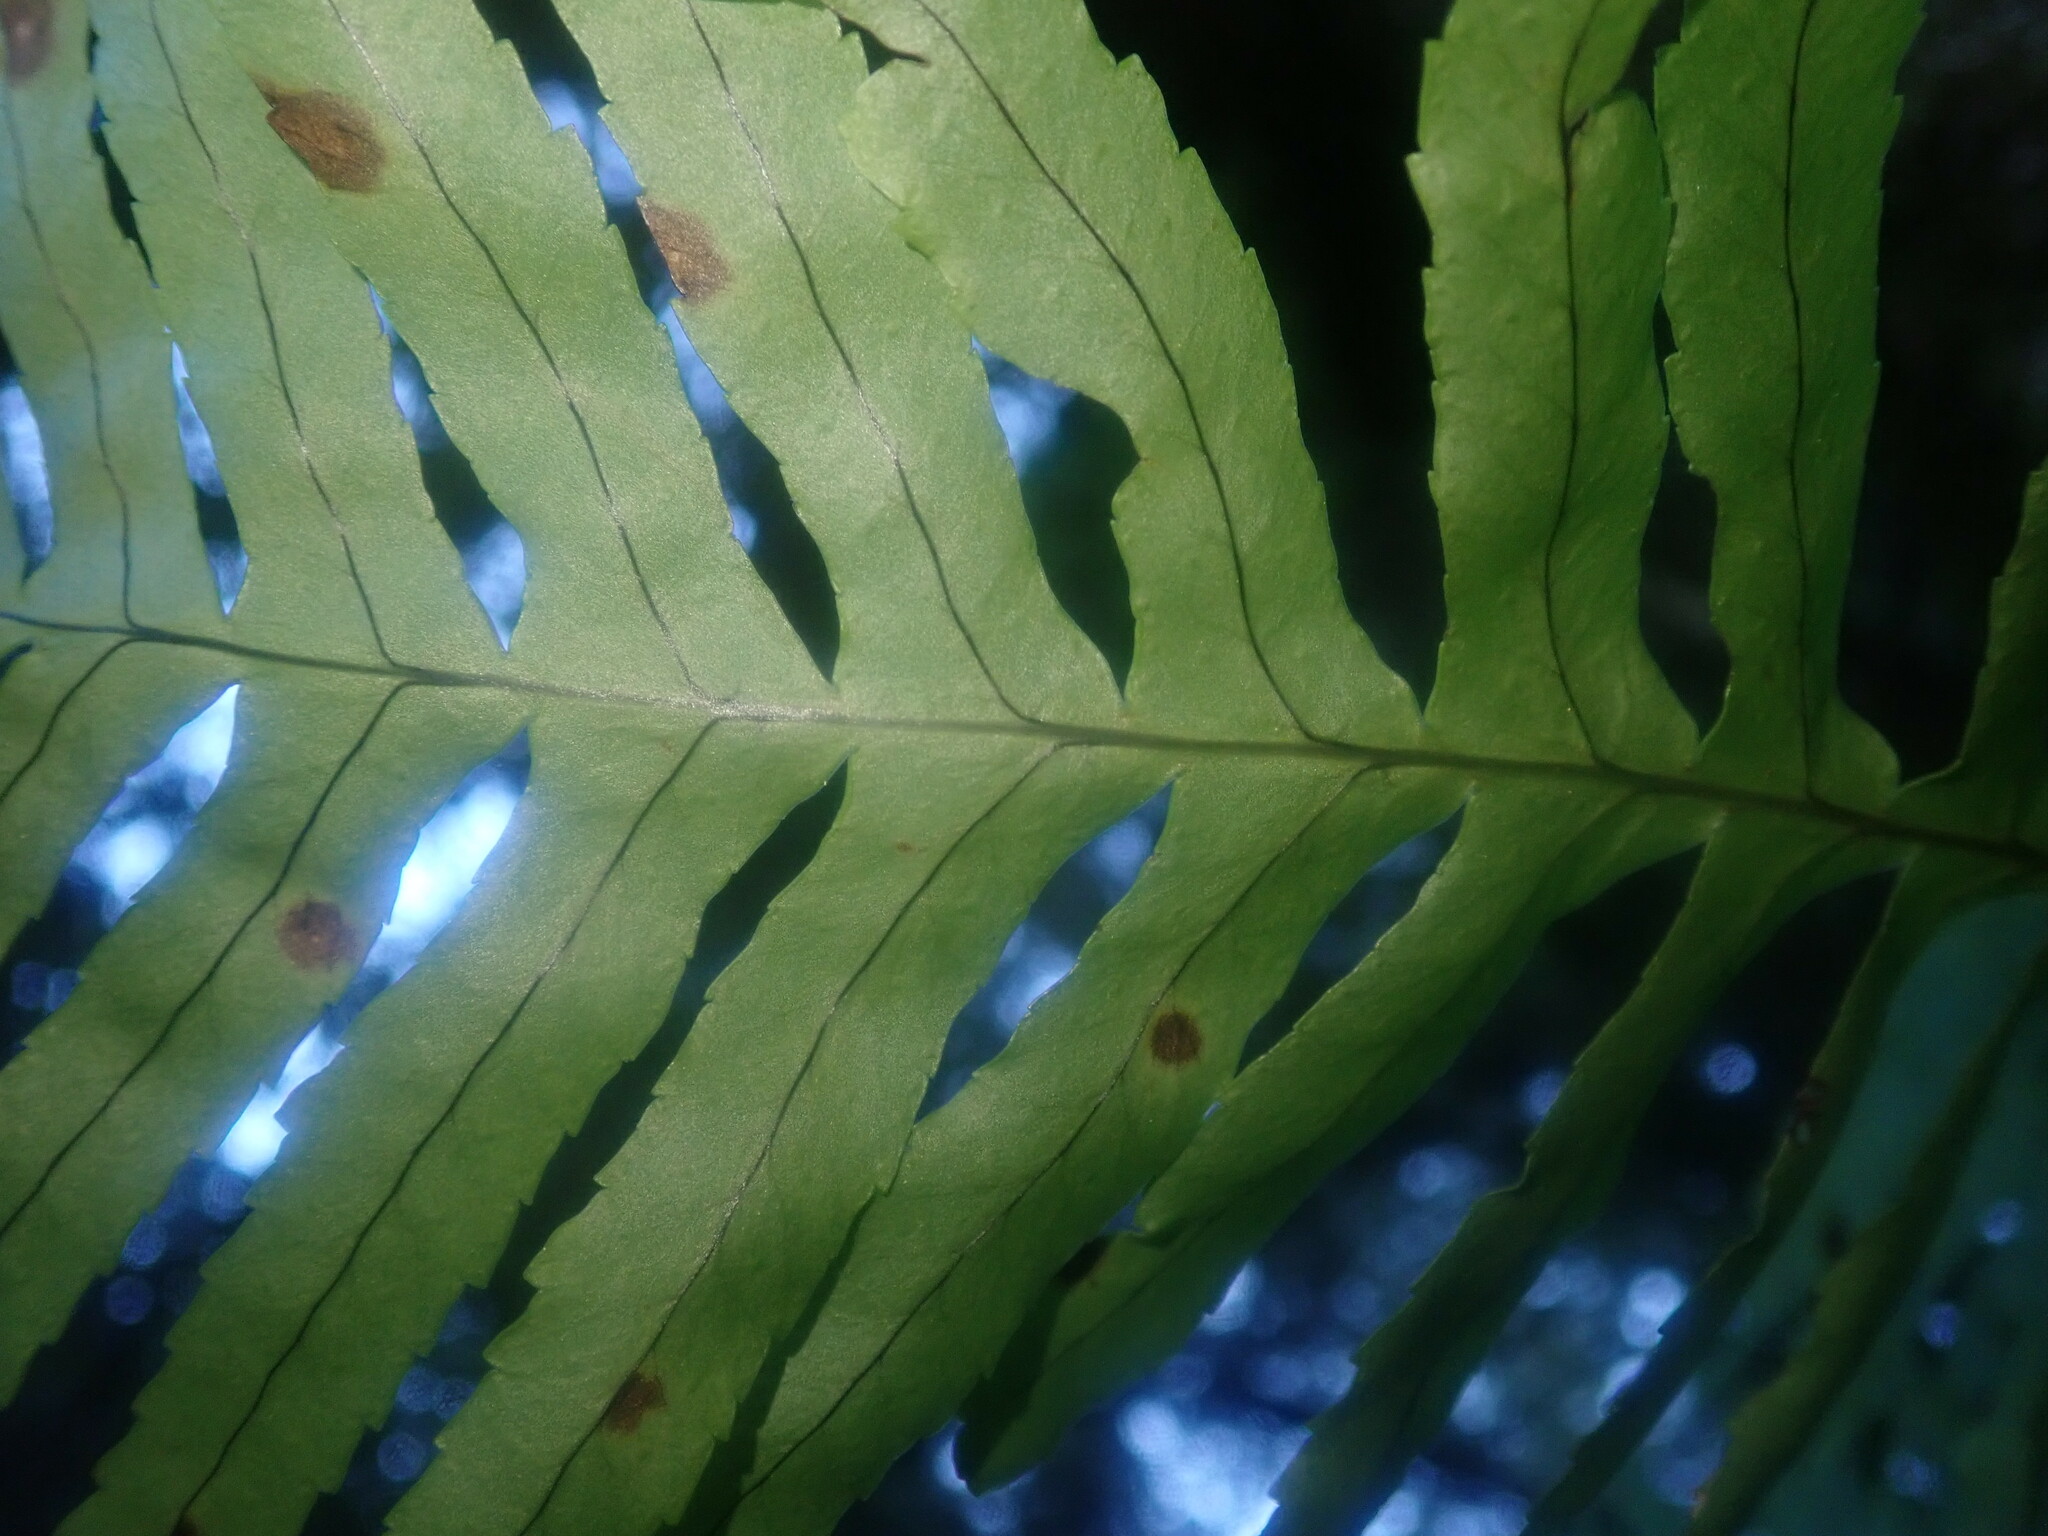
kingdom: Plantae
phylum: Tracheophyta
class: Polypodiopsida
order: Polypodiales
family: Polypodiaceae
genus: Polypodium
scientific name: Polypodium macaronesicum
